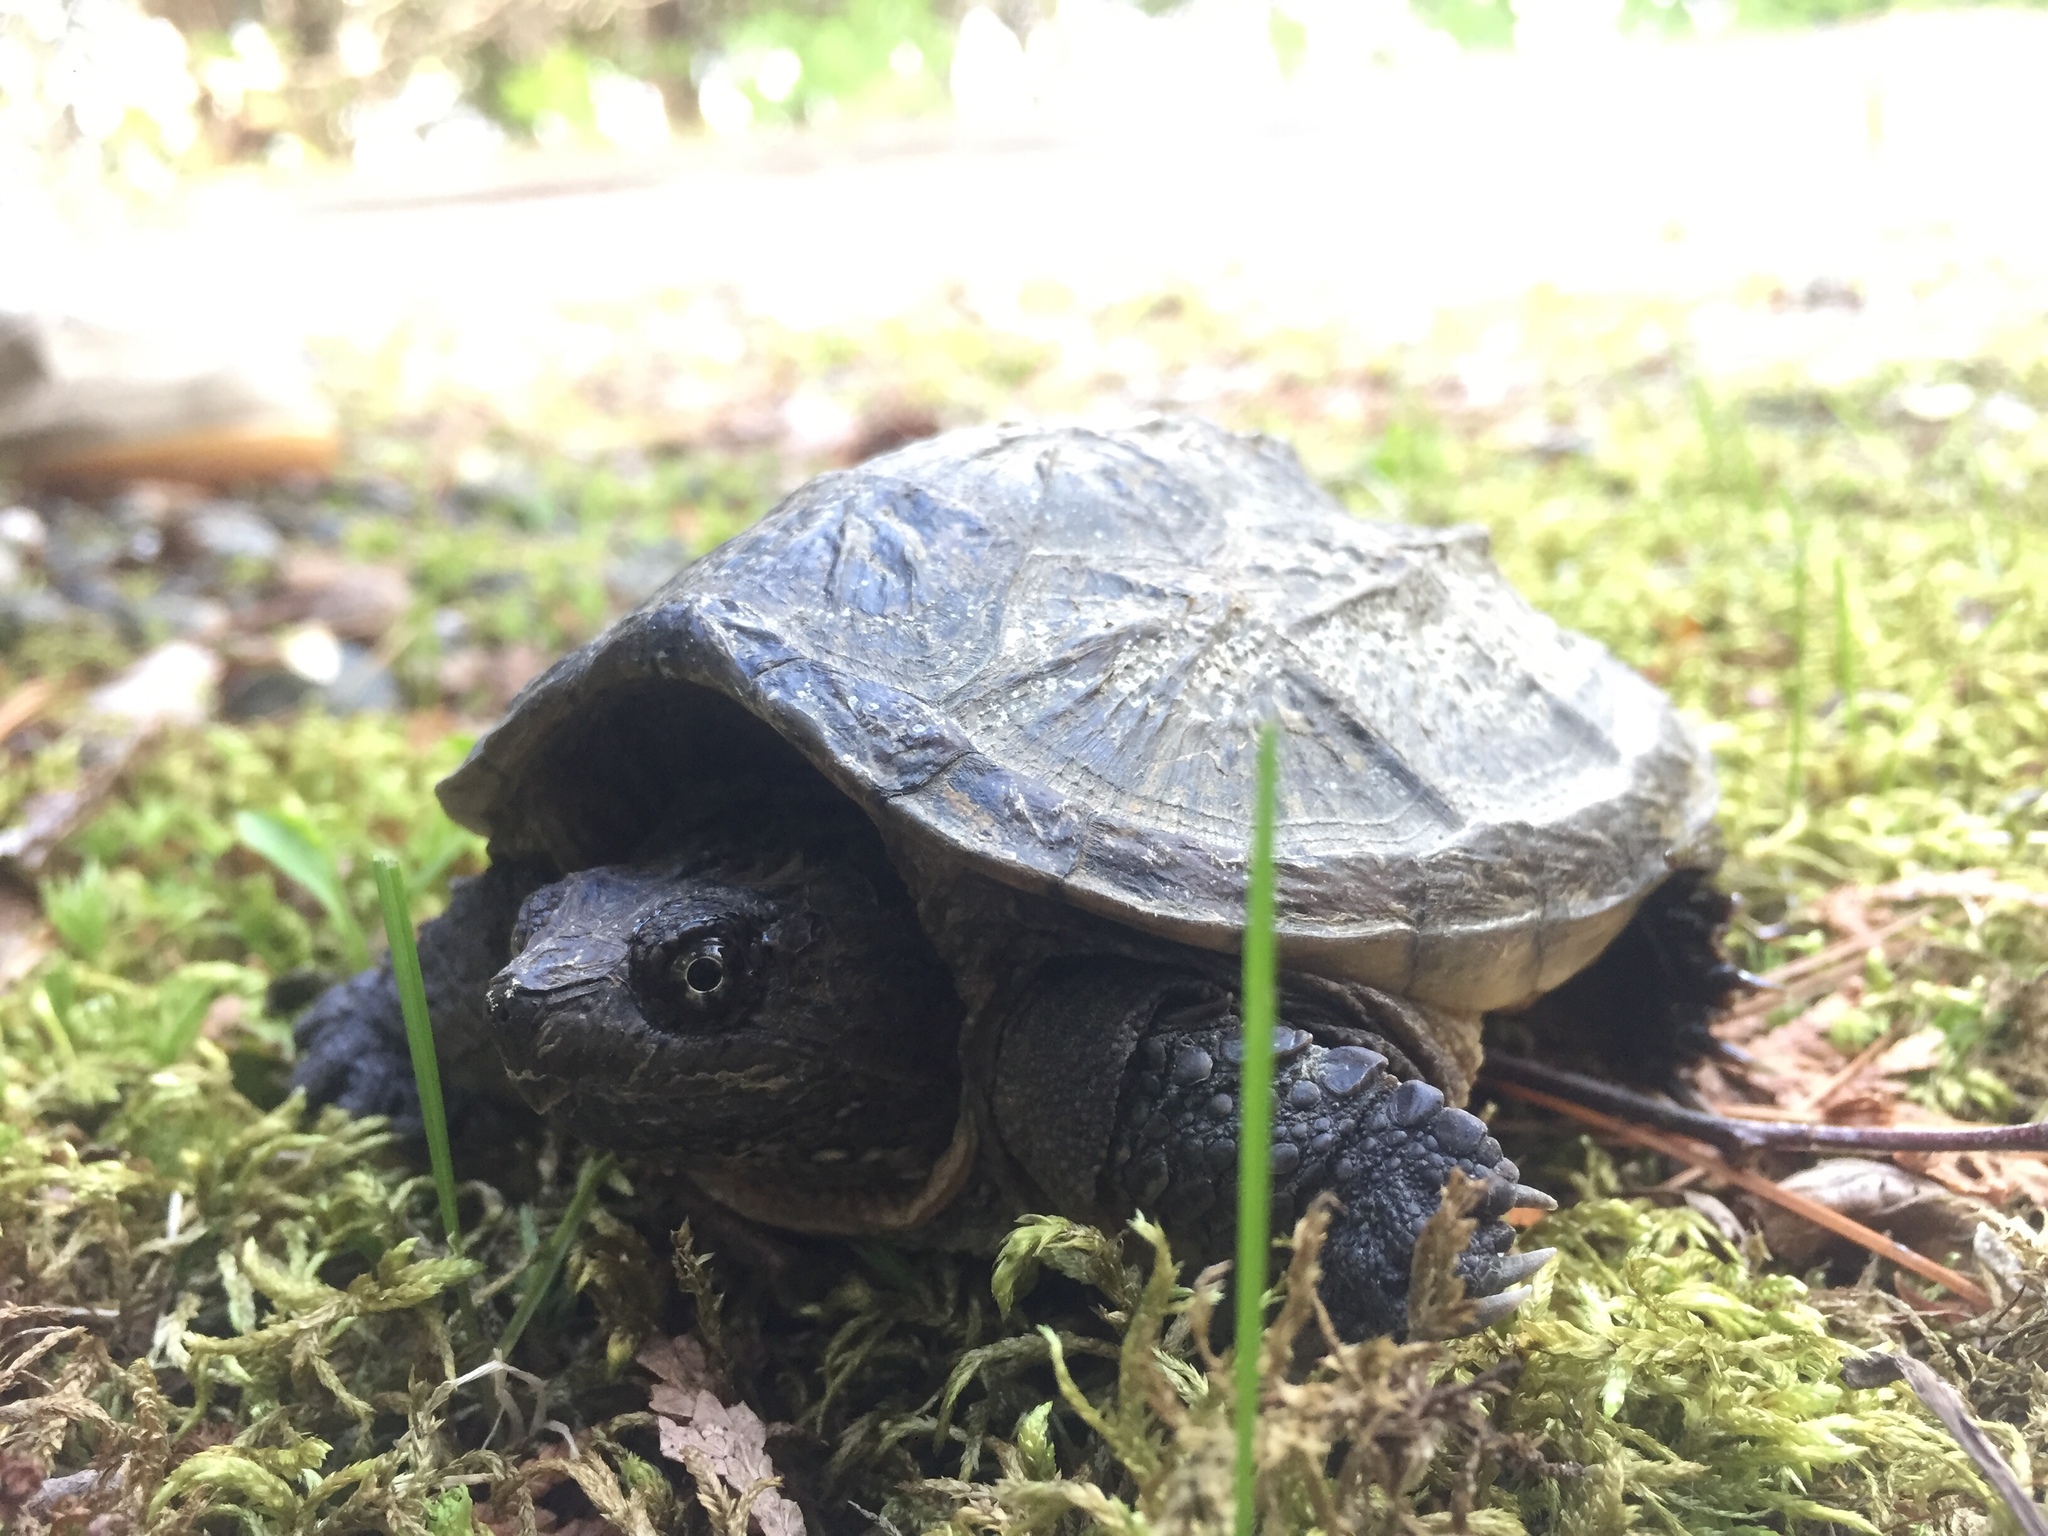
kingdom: Animalia
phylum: Chordata
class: Testudines
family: Chelydridae
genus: Chelydra
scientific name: Chelydra serpentina
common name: Common snapping turtle
